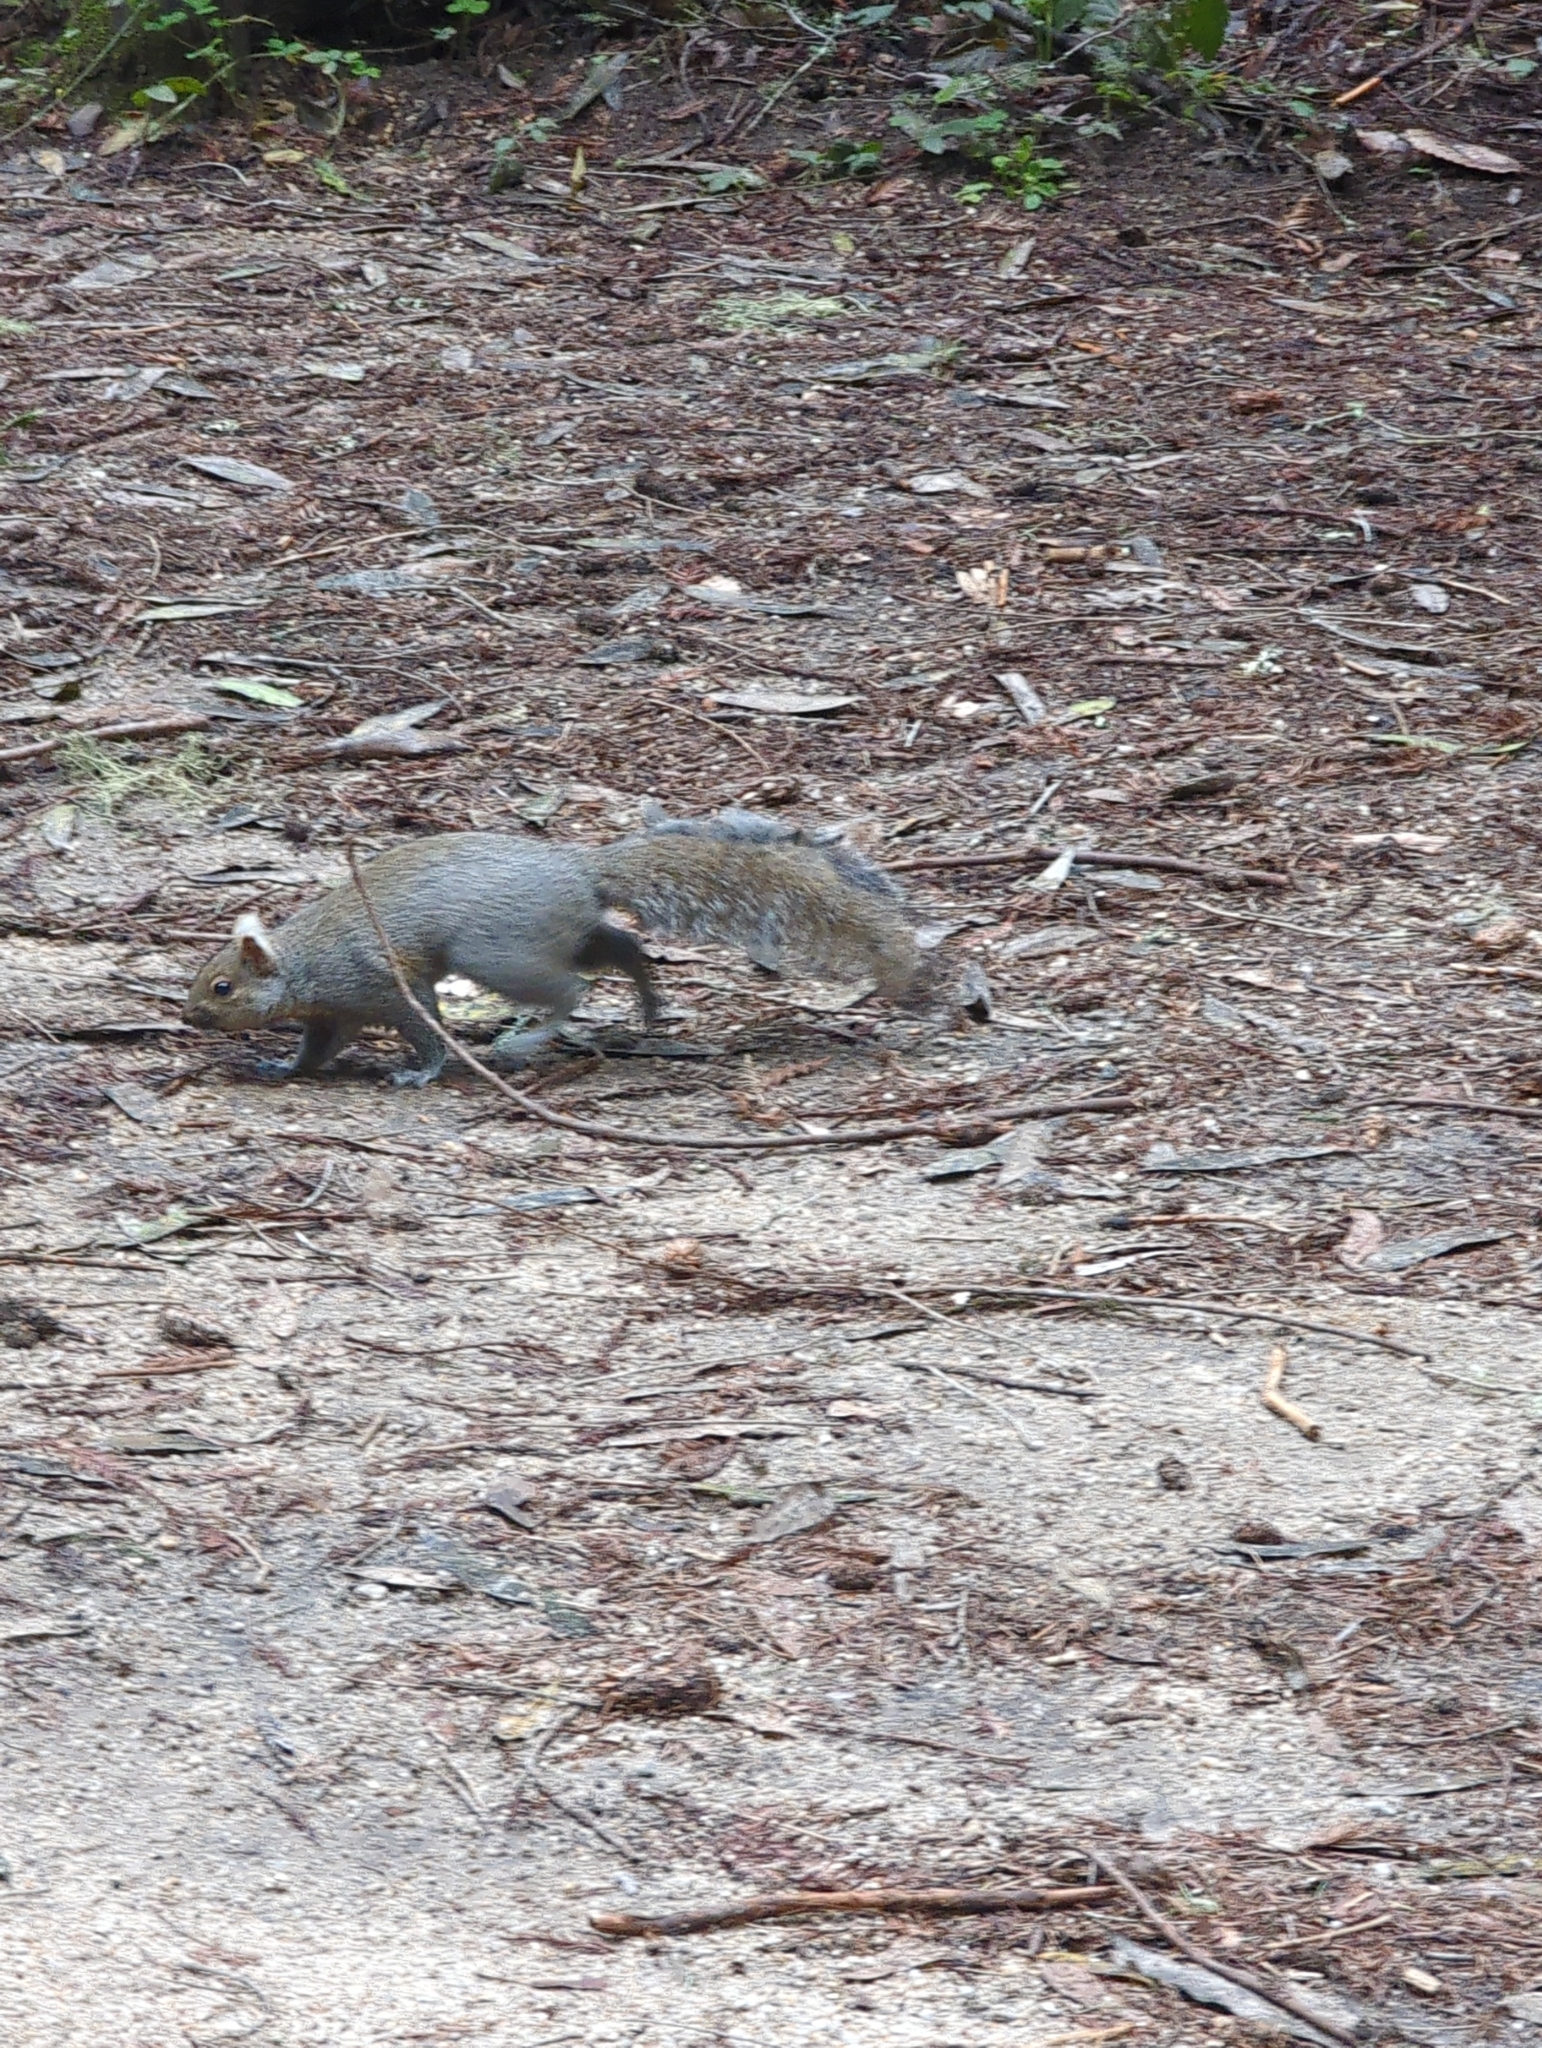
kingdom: Animalia
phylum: Chordata
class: Mammalia
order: Rodentia
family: Sciuridae
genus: Sciurus
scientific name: Sciurus carolinensis
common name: Eastern gray squirrel
